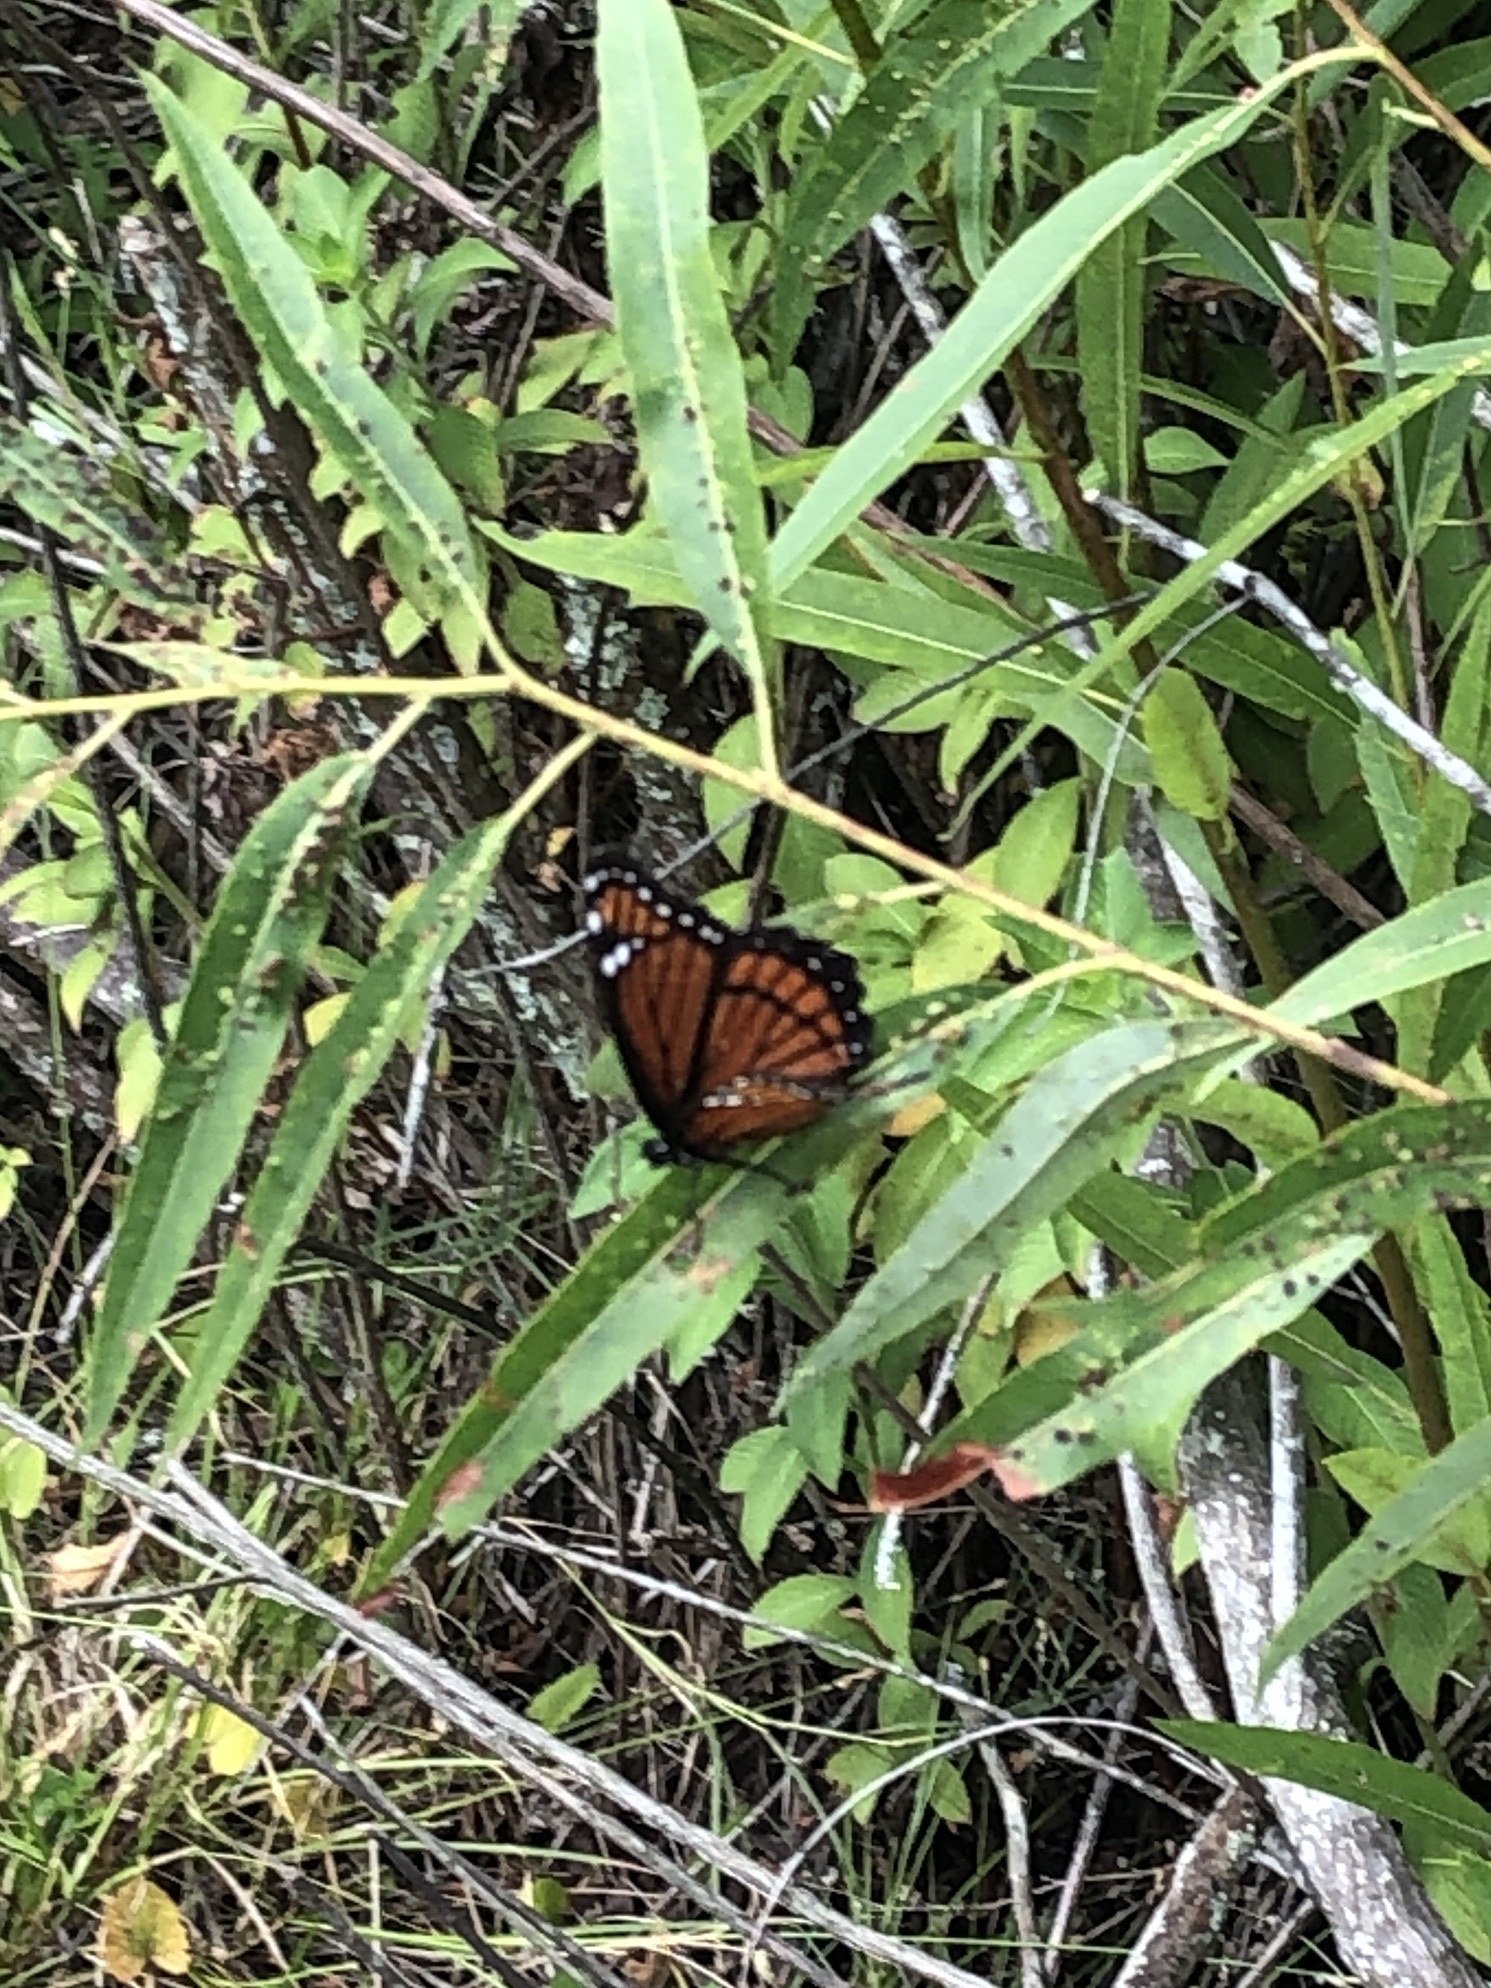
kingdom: Animalia
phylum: Arthropoda
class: Insecta
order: Lepidoptera
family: Nymphalidae
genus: Limenitis
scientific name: Limenitis archippus
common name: Viceroy
